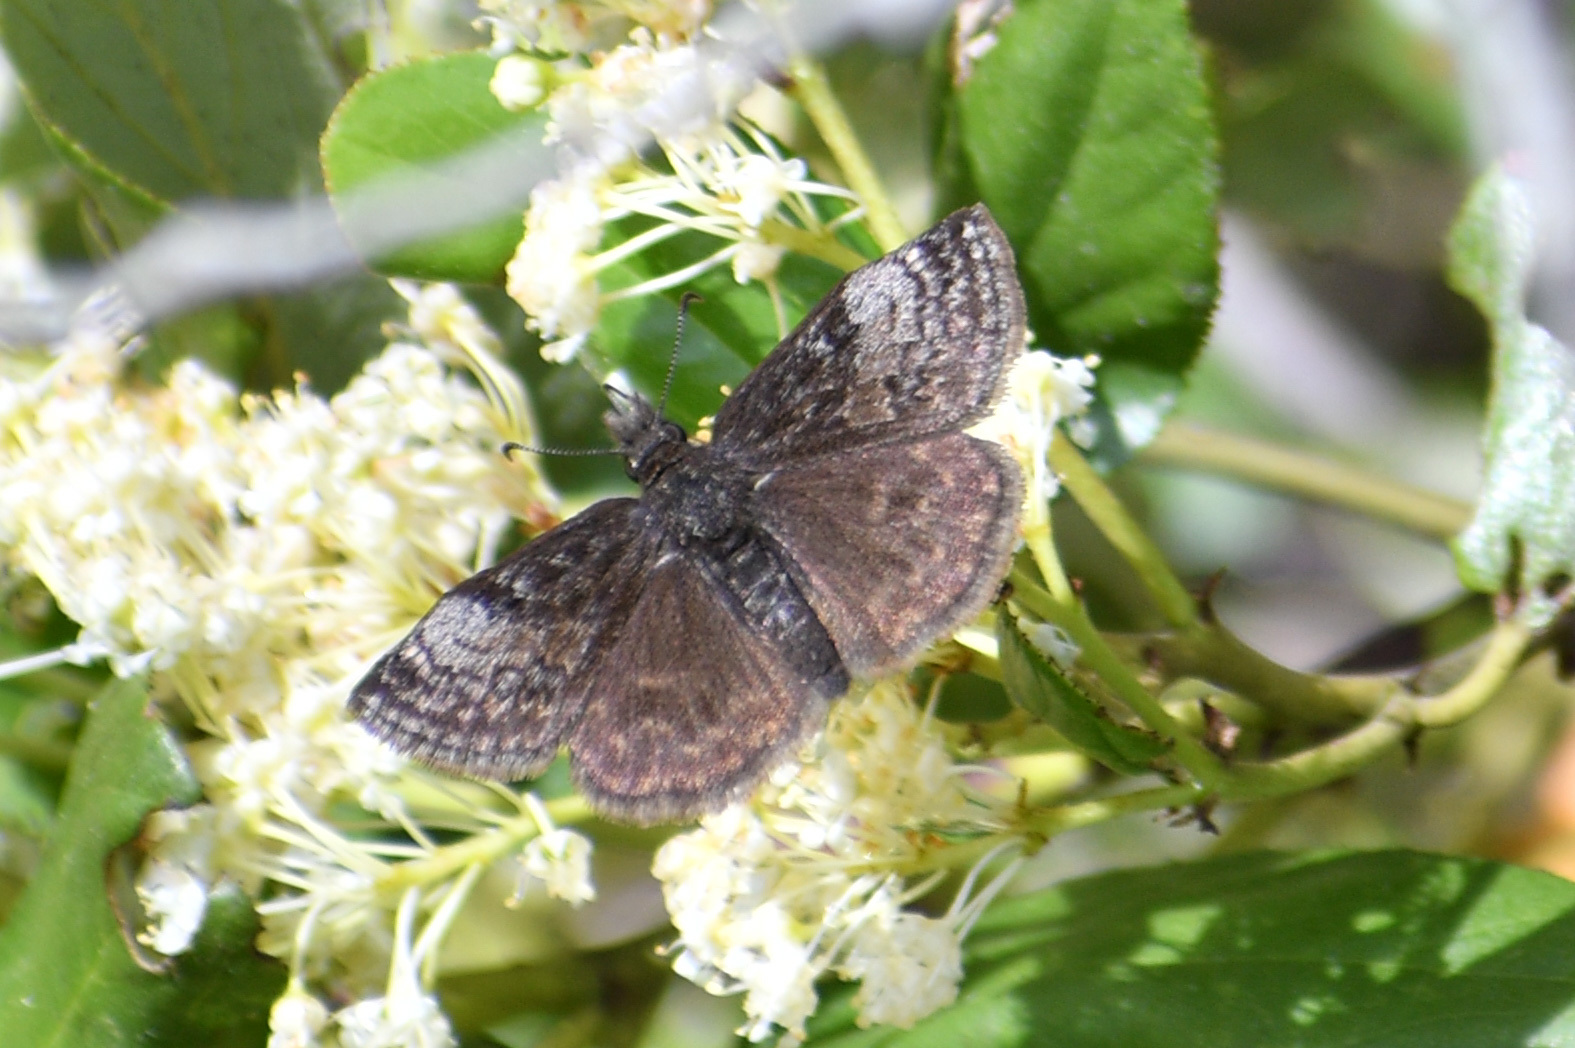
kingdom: Animalia
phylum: Arthropoda
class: Insecta
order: Lepidoptera
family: Hesperiidae
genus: Erynnis
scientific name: Erynnis icelus
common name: Dreamy duskywing
